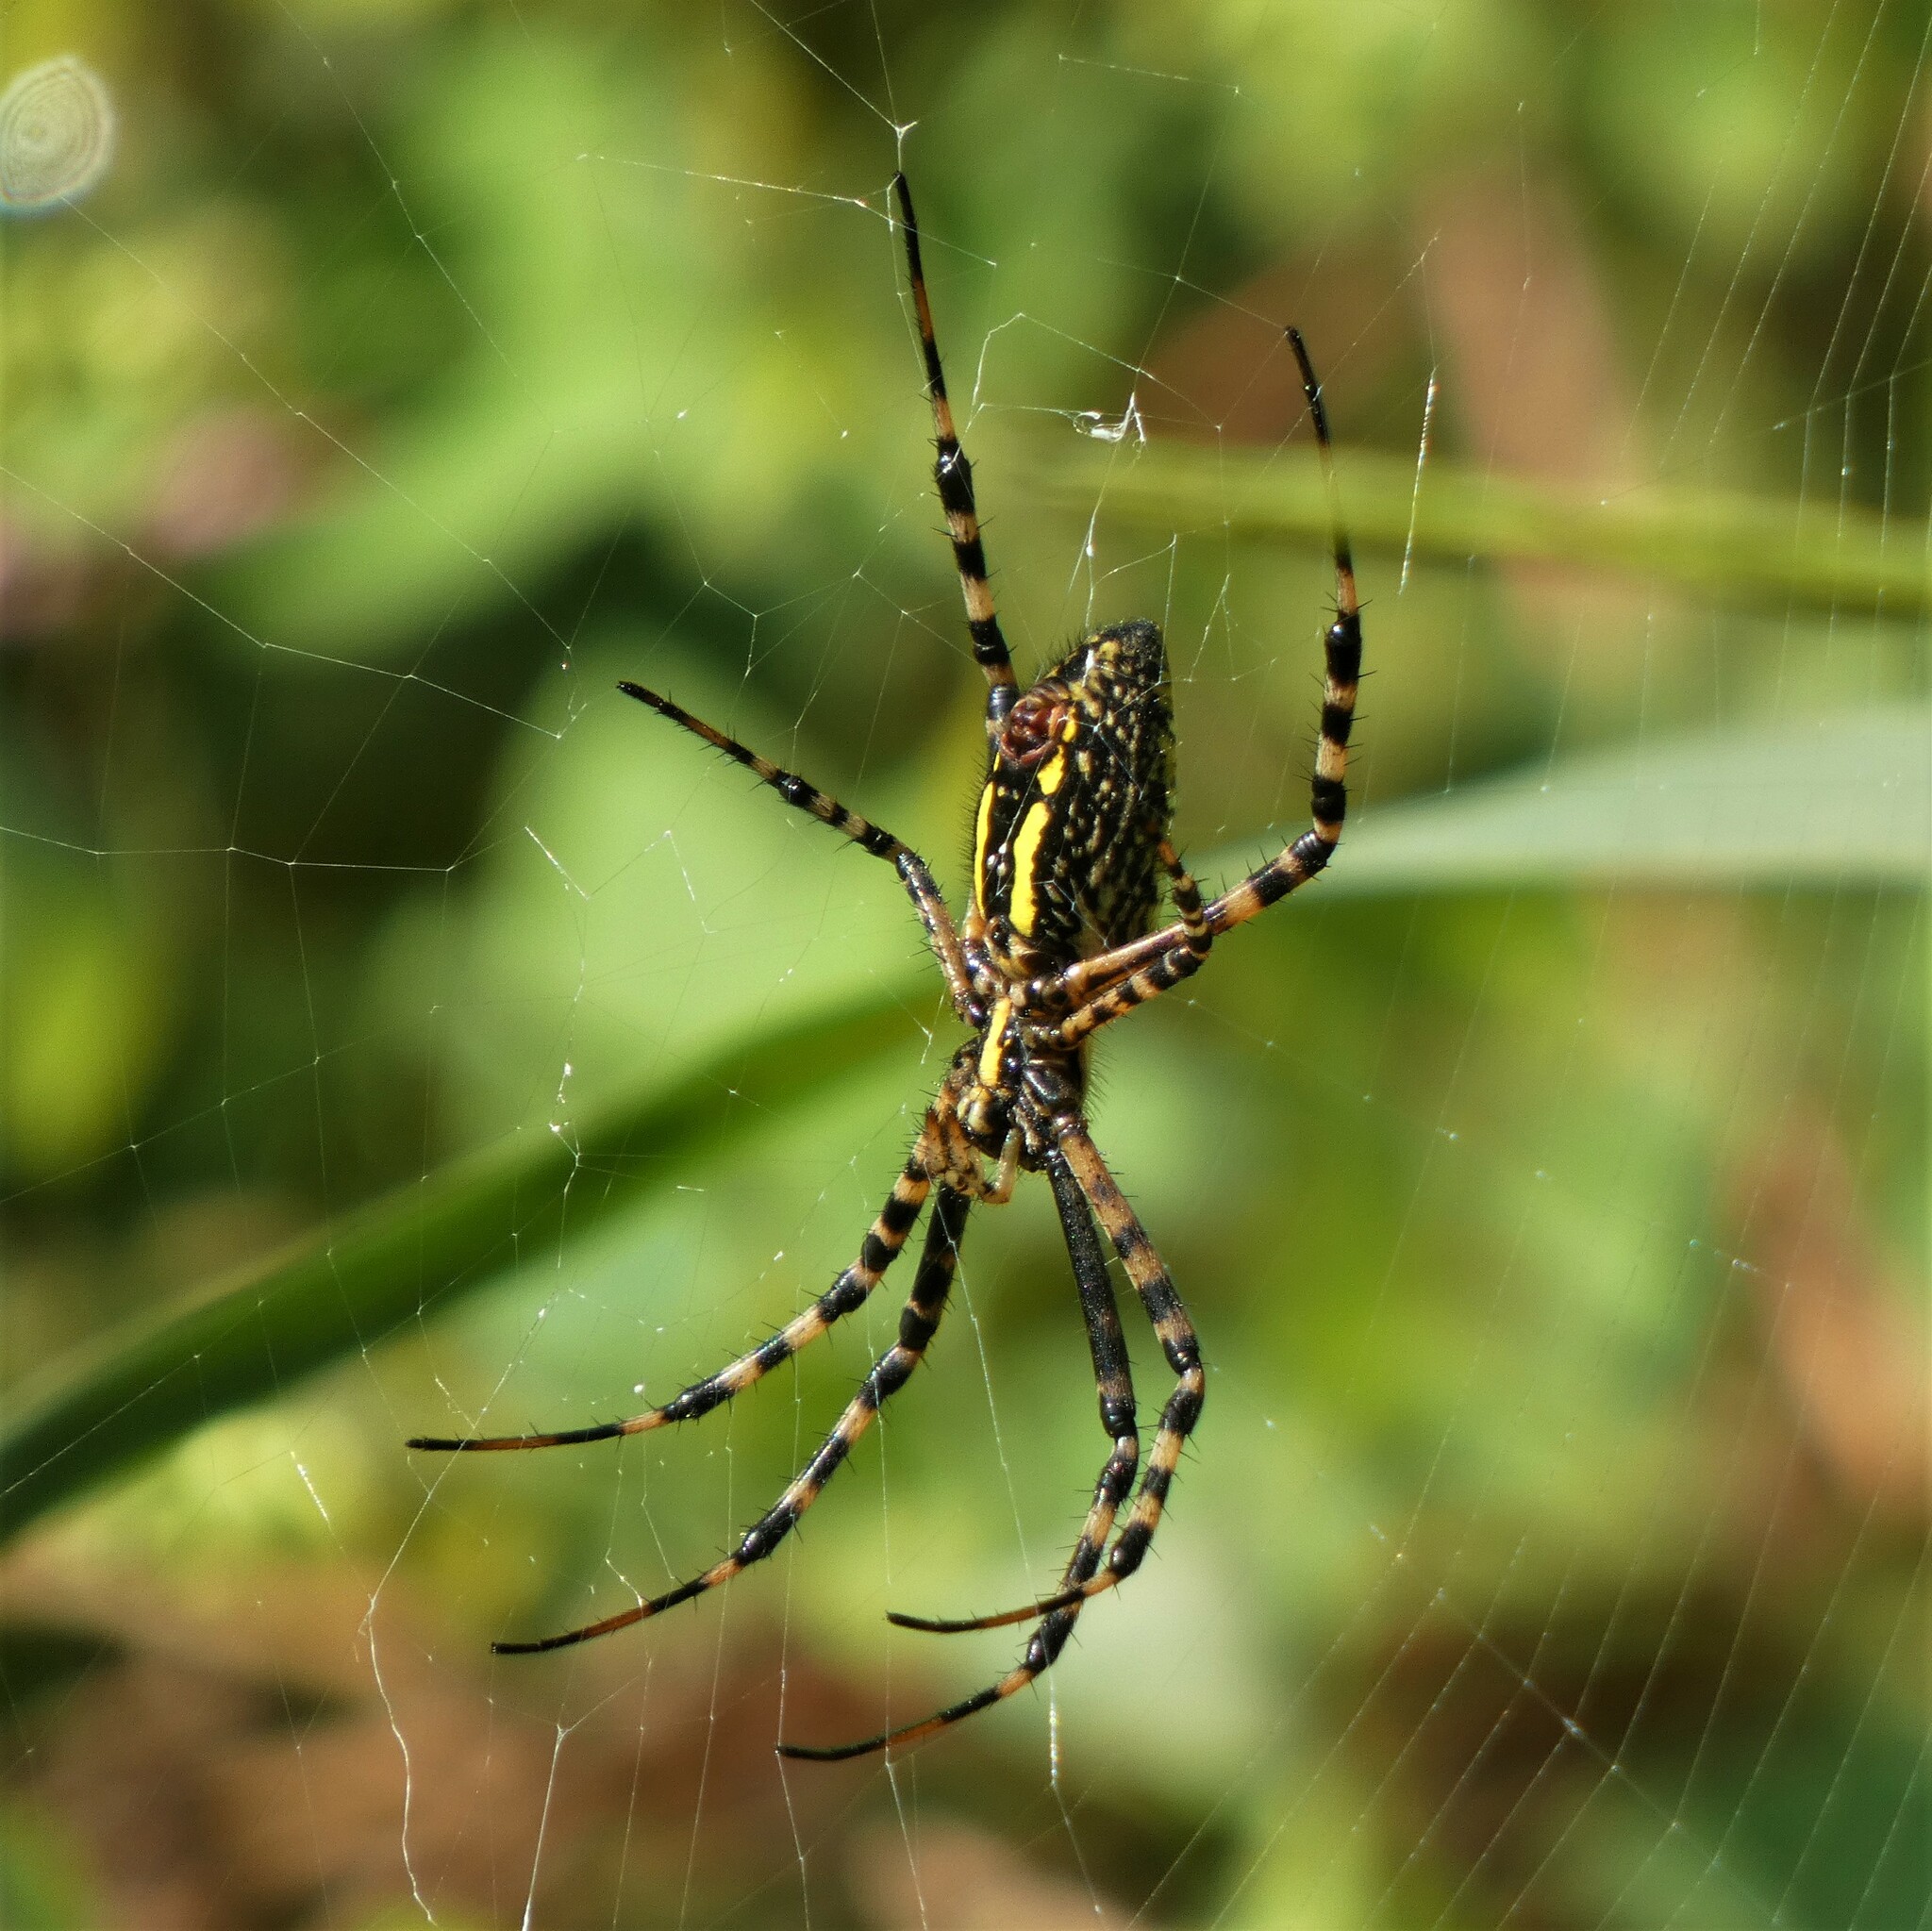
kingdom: Animalia
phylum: Arthropoda
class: Arachnida
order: Araneae
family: Araneidae
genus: Argiope
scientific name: Argiope trifasciata
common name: Banded garden spider
